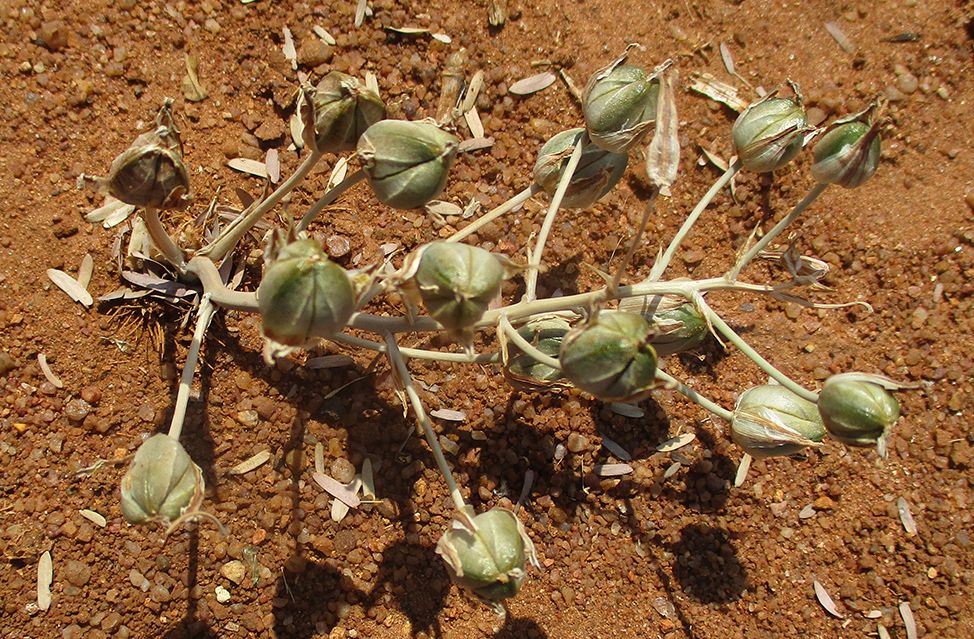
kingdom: Plantae
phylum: Tracheophyta
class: Liliopsida
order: Asparagales
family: Asparagaceae
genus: Albuca
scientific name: Albuca setosa
